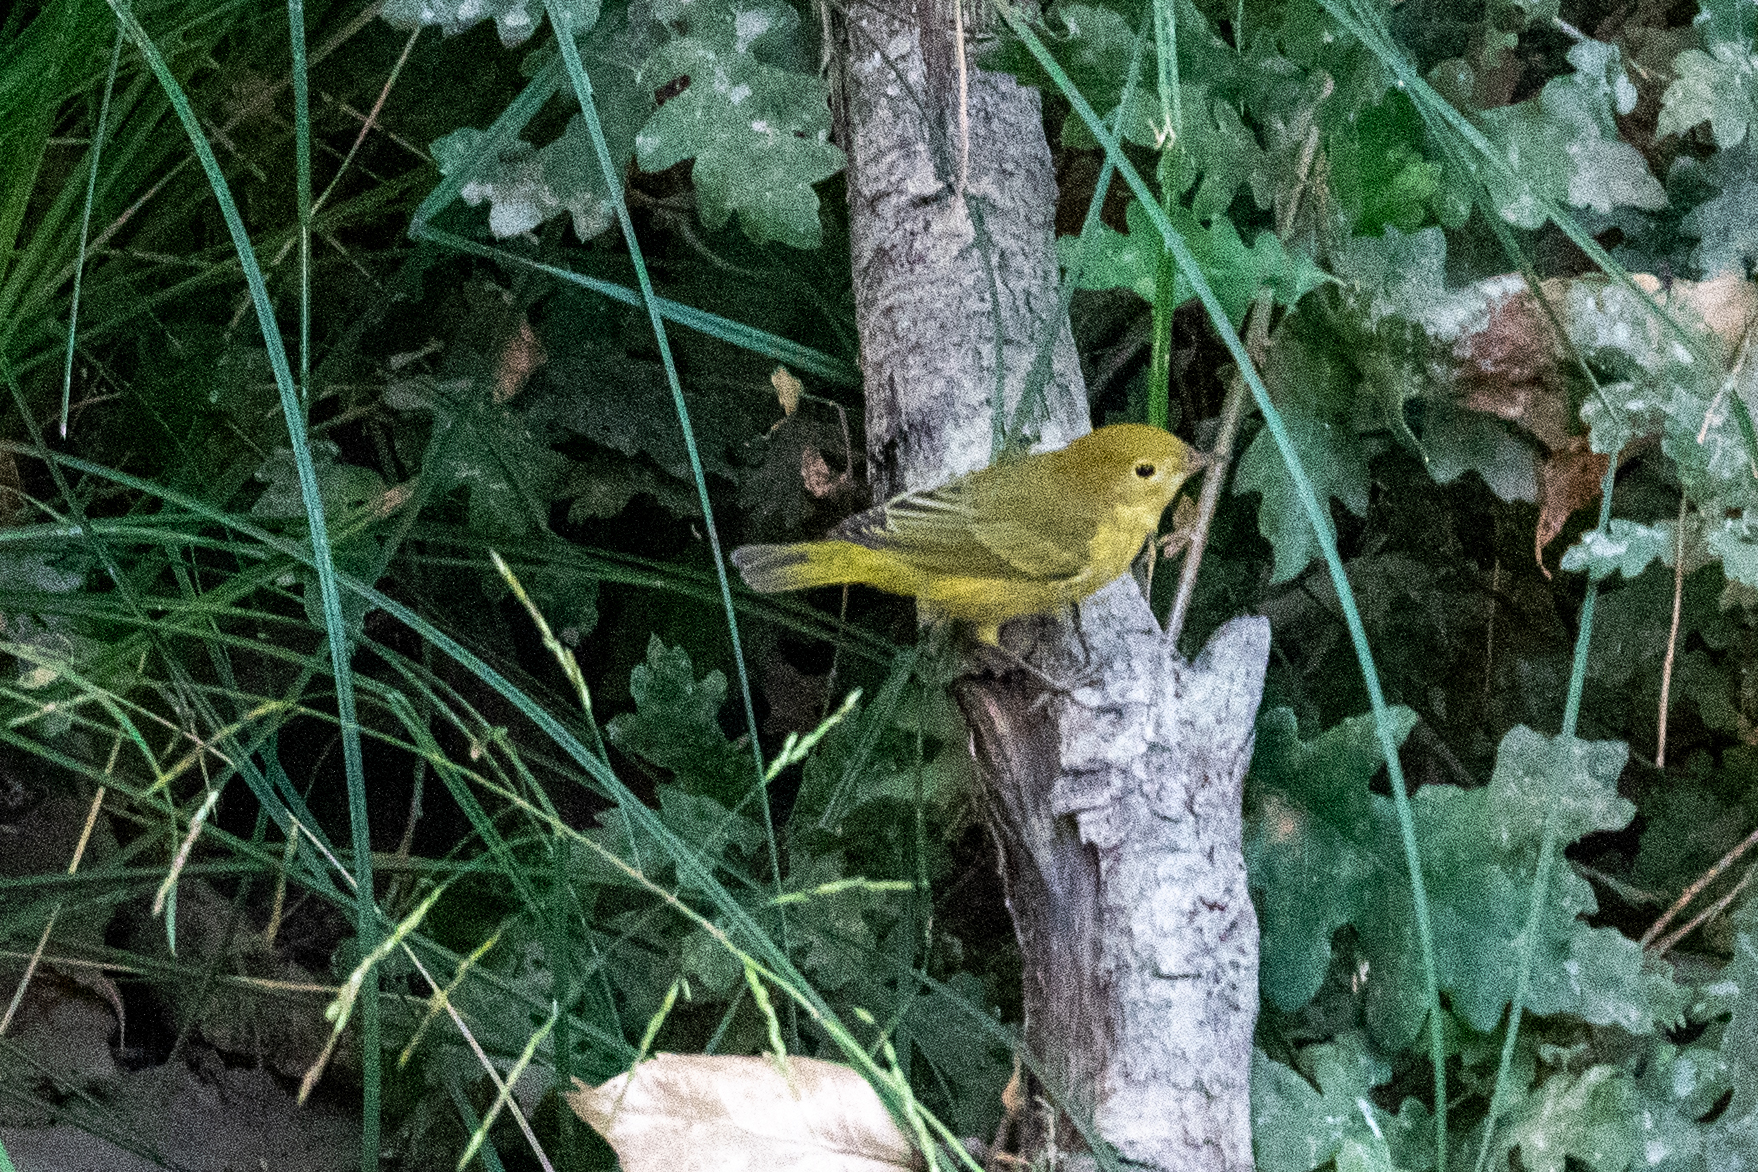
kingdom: Animalia
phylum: Chordata
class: Aves
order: Passeriformes
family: Parulidae
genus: Setophaga
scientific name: Setophaga petechia
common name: Yellow warbler
